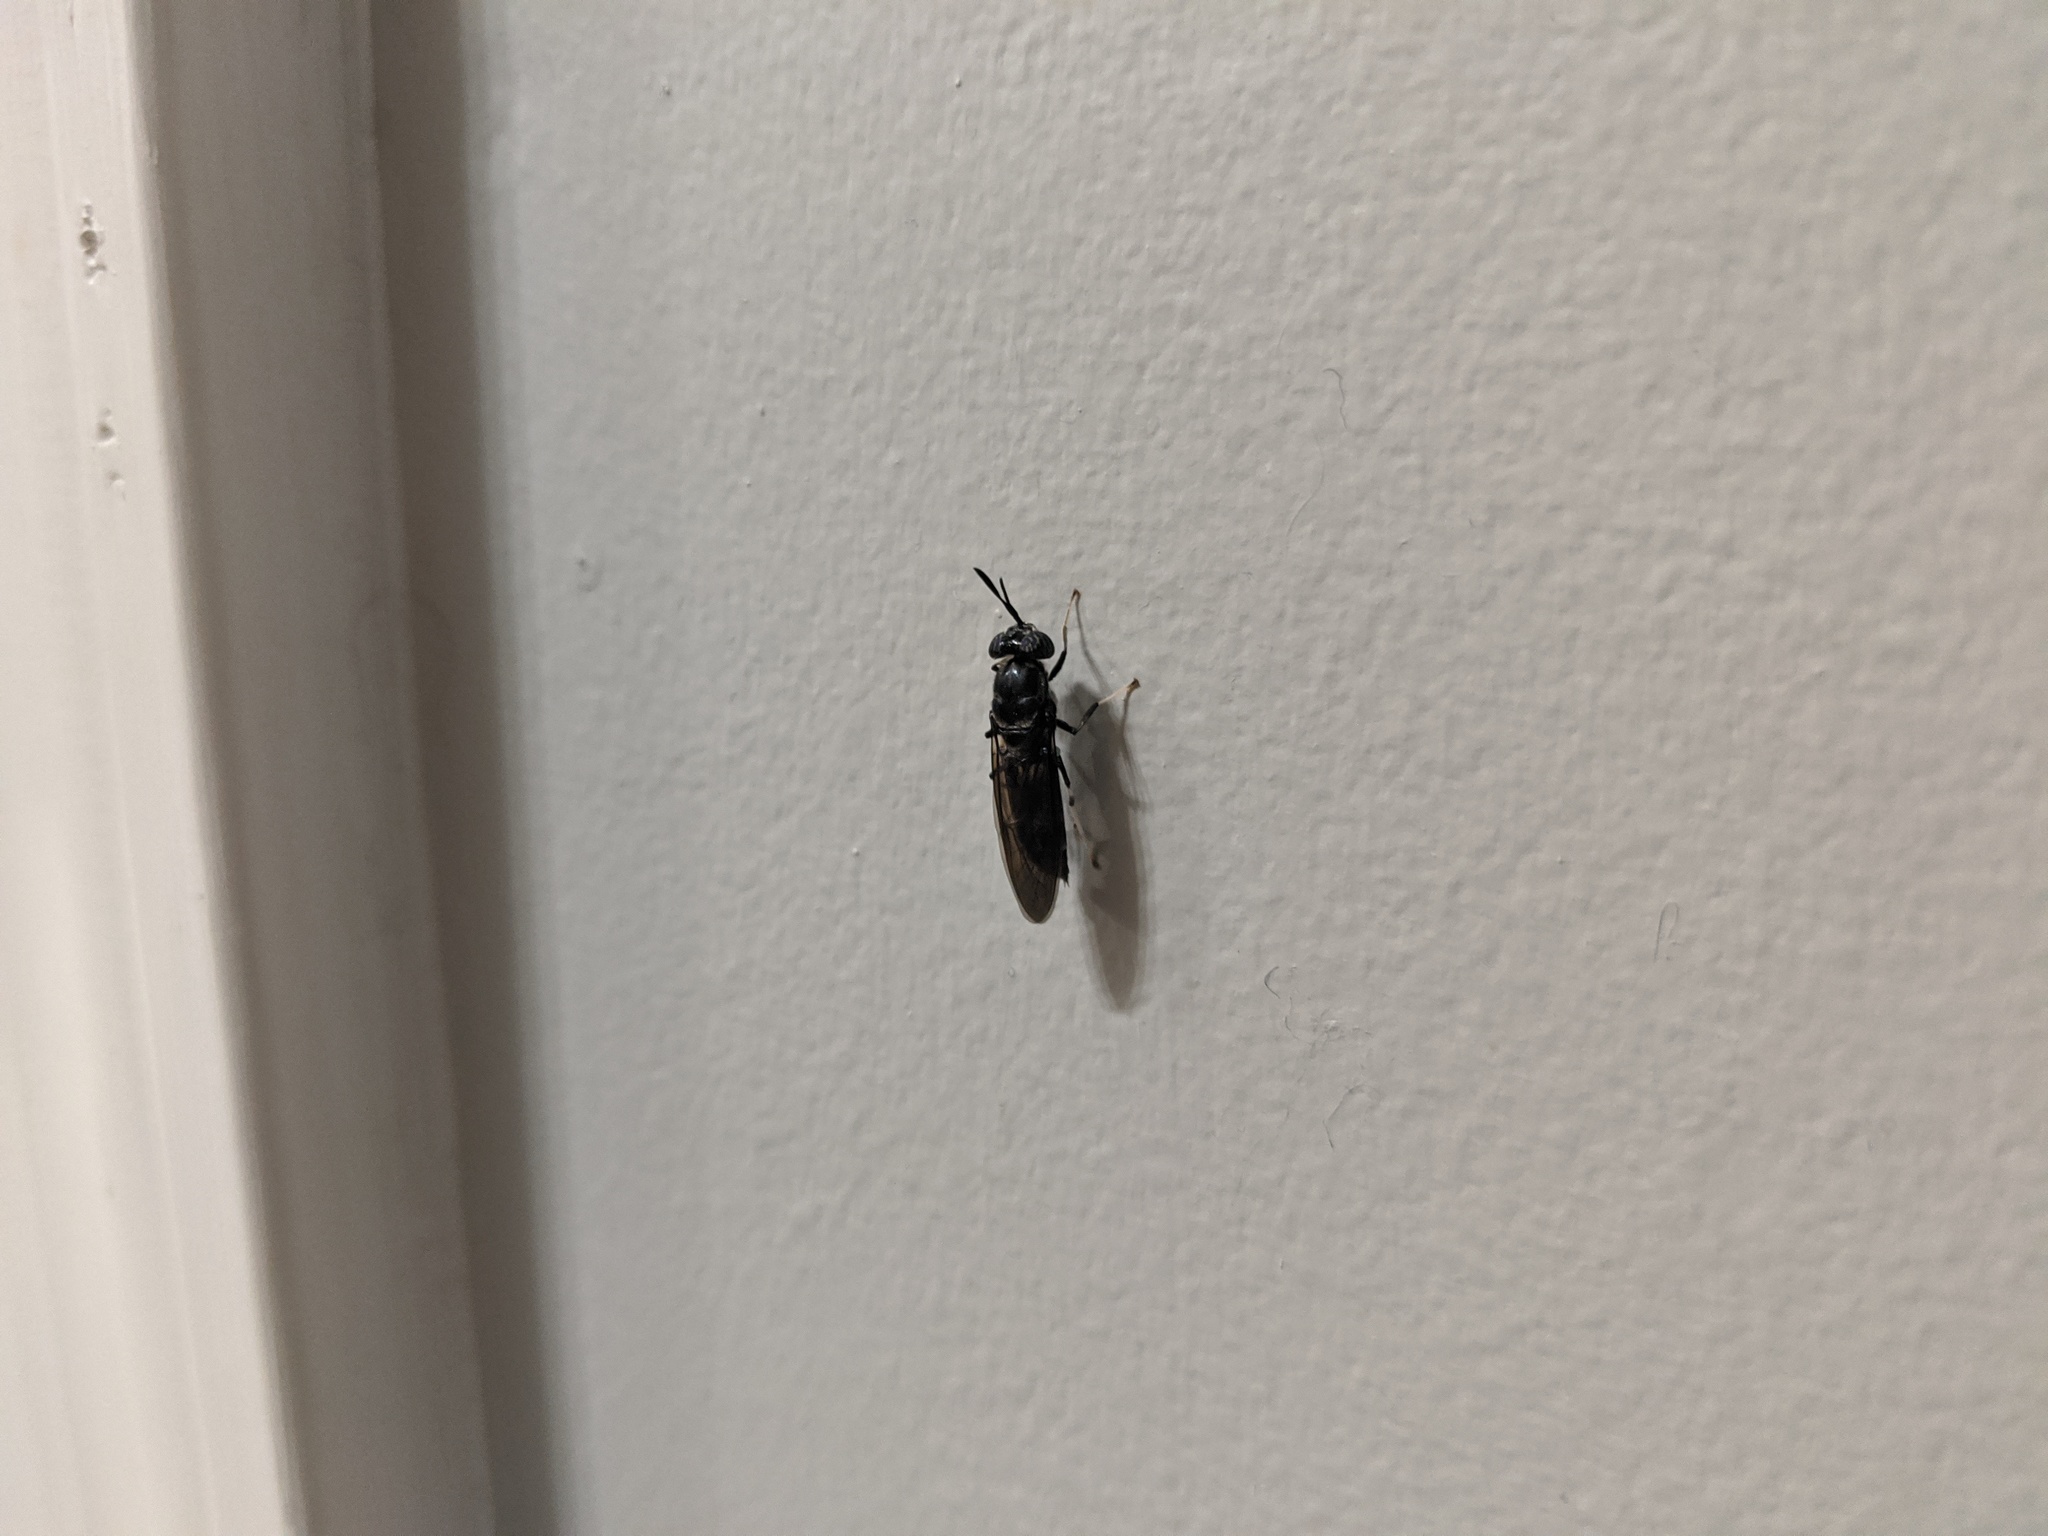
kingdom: Animalia
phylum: Arthropoda
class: Insecta
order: Diptera
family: Stratiomyidae
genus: Hermetia
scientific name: Hermetia illucens
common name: Black soldier fly
